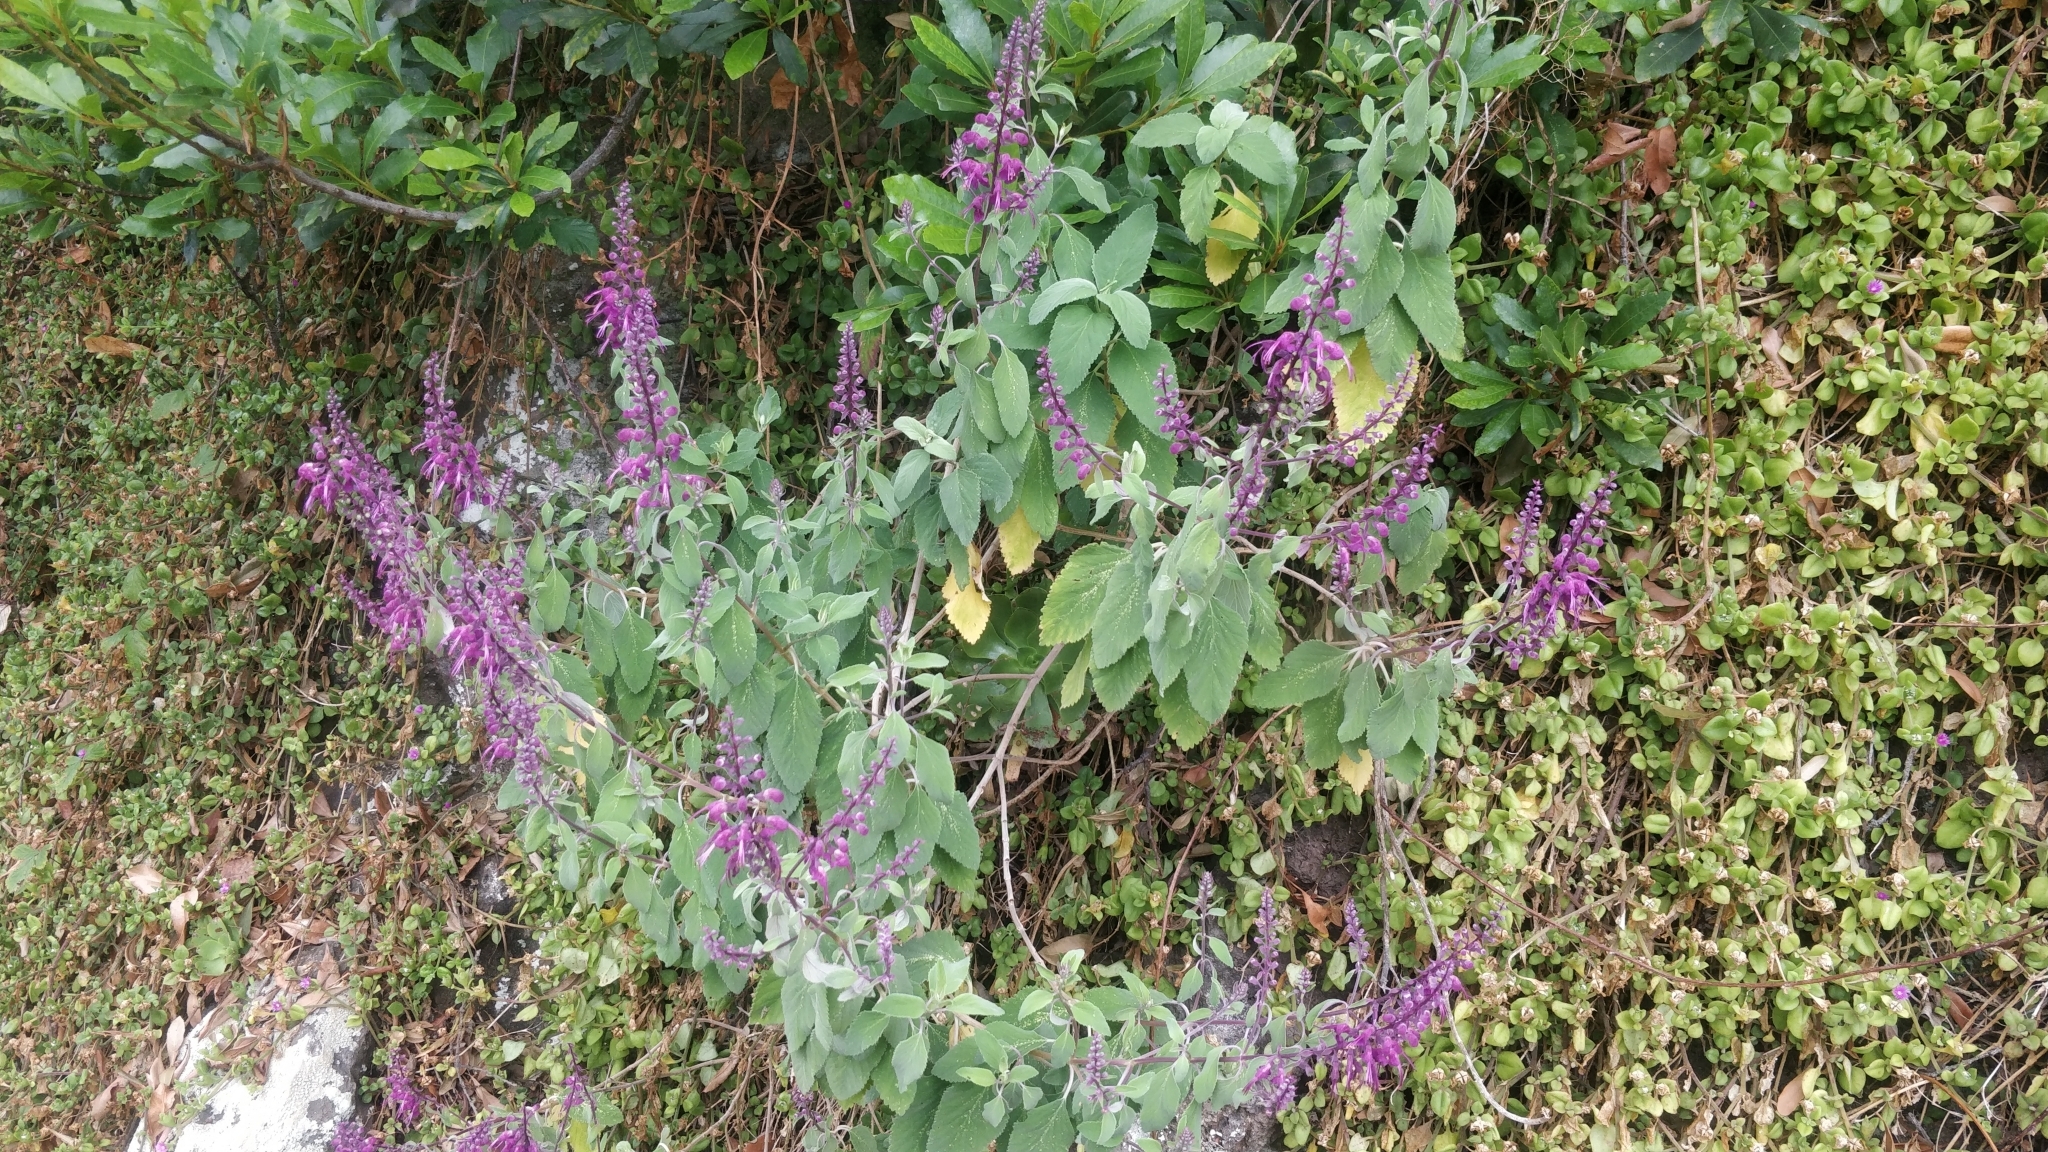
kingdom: Plantae
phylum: Tracheophyta
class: Magnoliopsida
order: Lamiales
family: Lamiaceae
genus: Teucrium
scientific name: Teucrium betonicum
